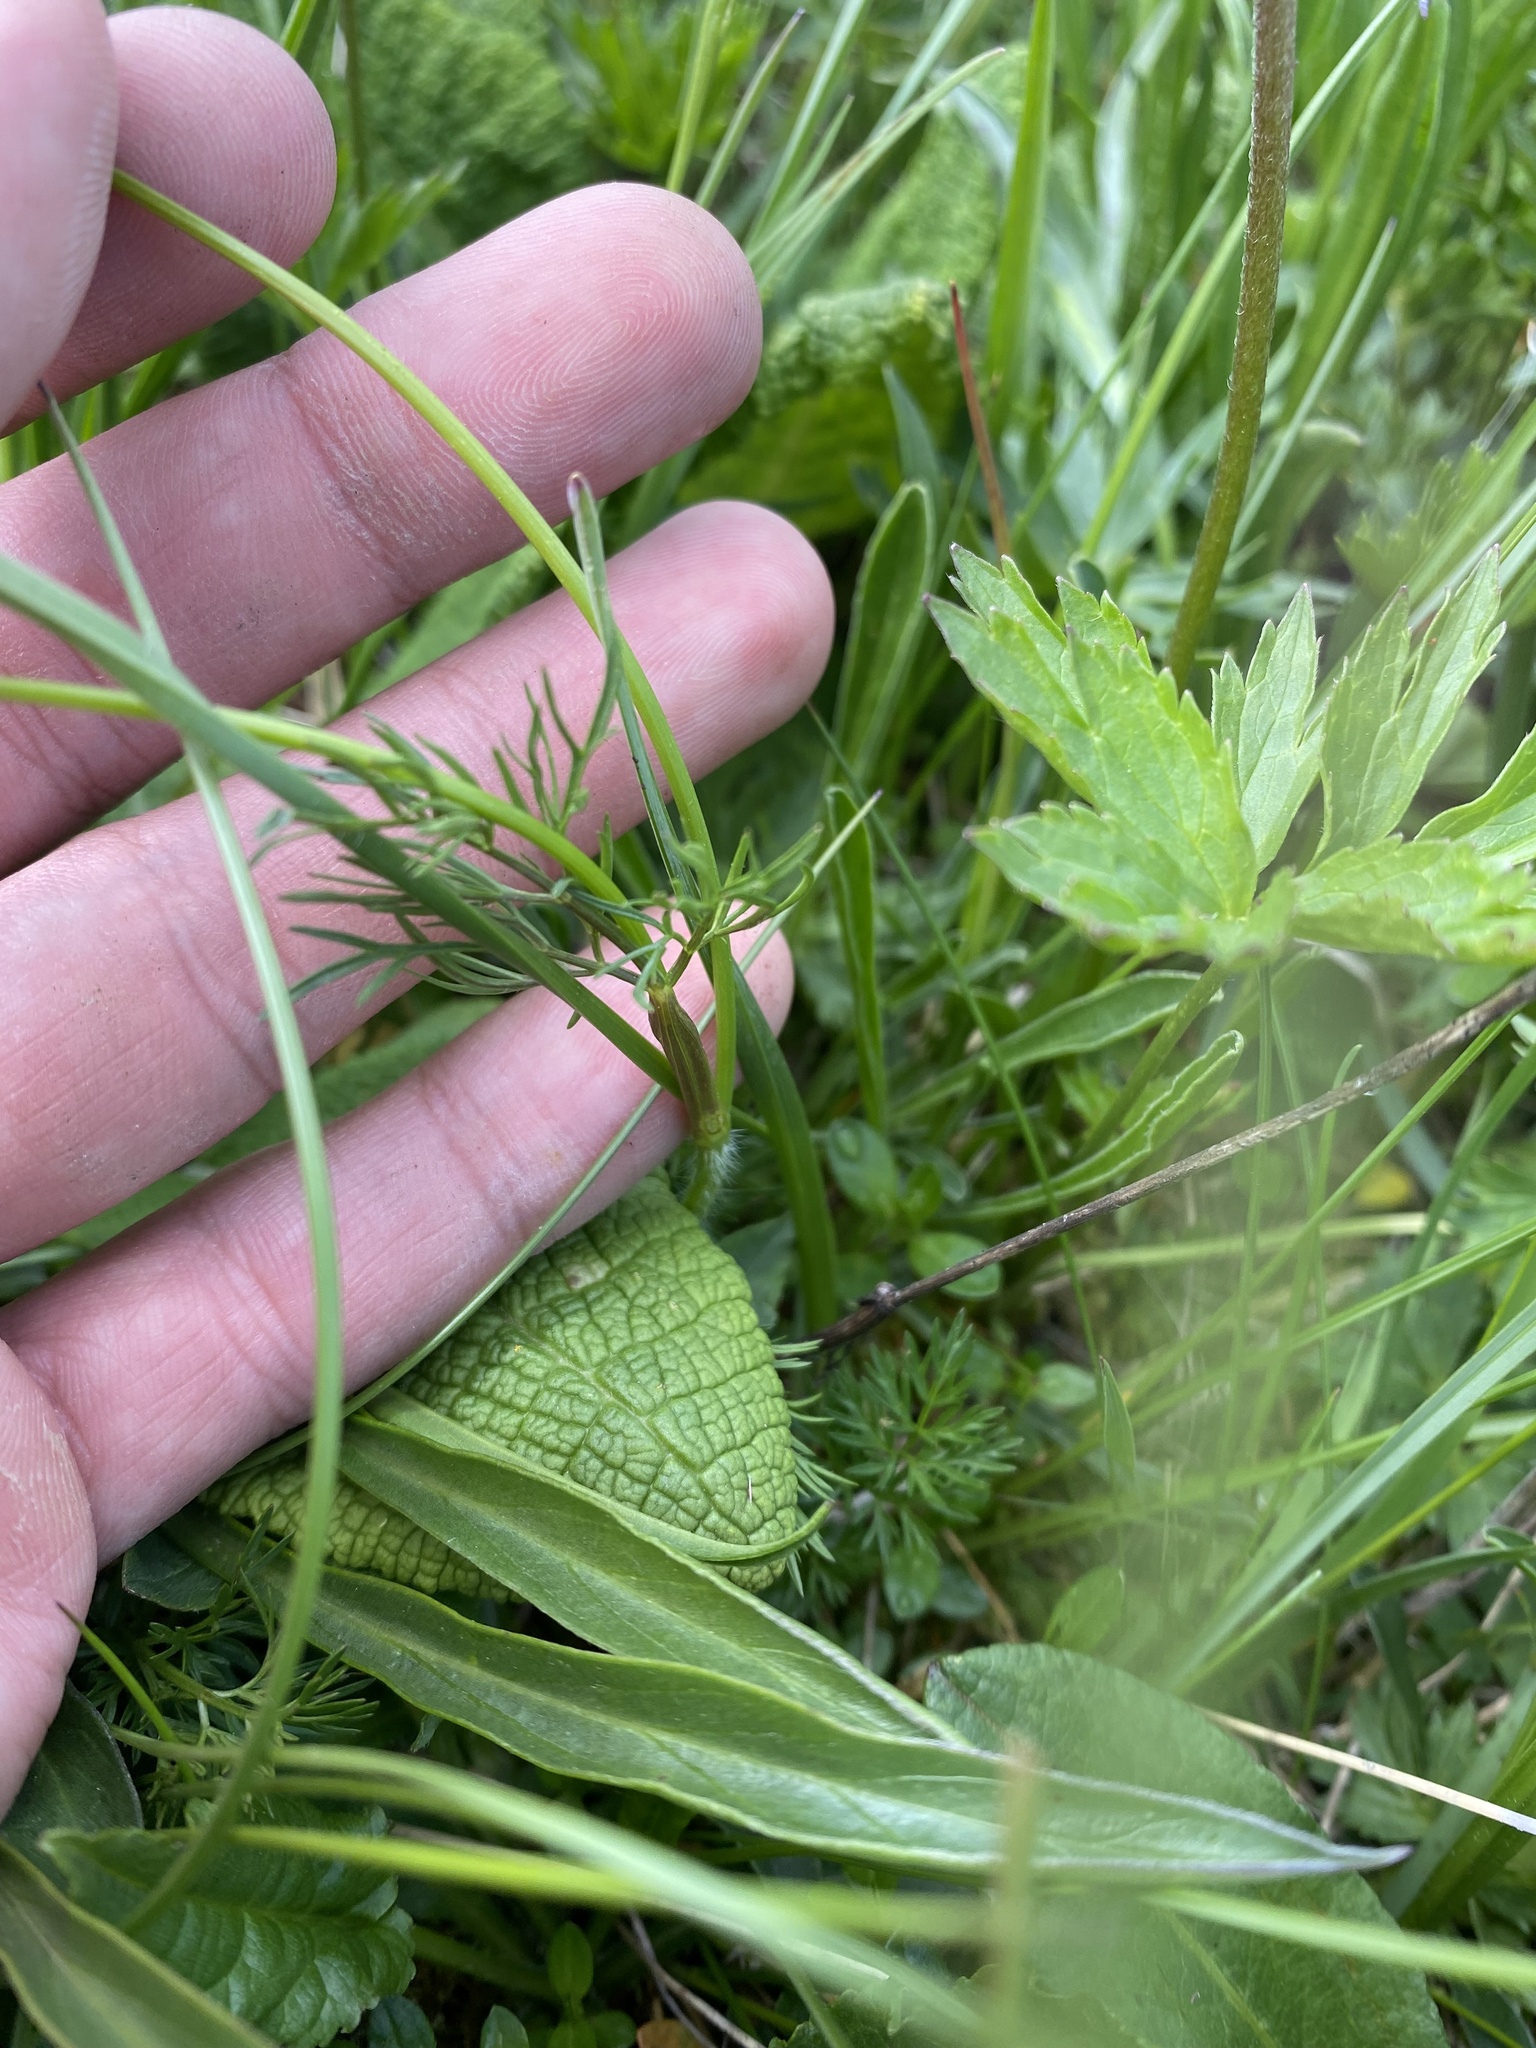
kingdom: Plantae
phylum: Tracheophyta
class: Magnoliopsida
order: Apiales
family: Apiaceae
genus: Chaerophyllum
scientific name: Chaerophyllum roseum
